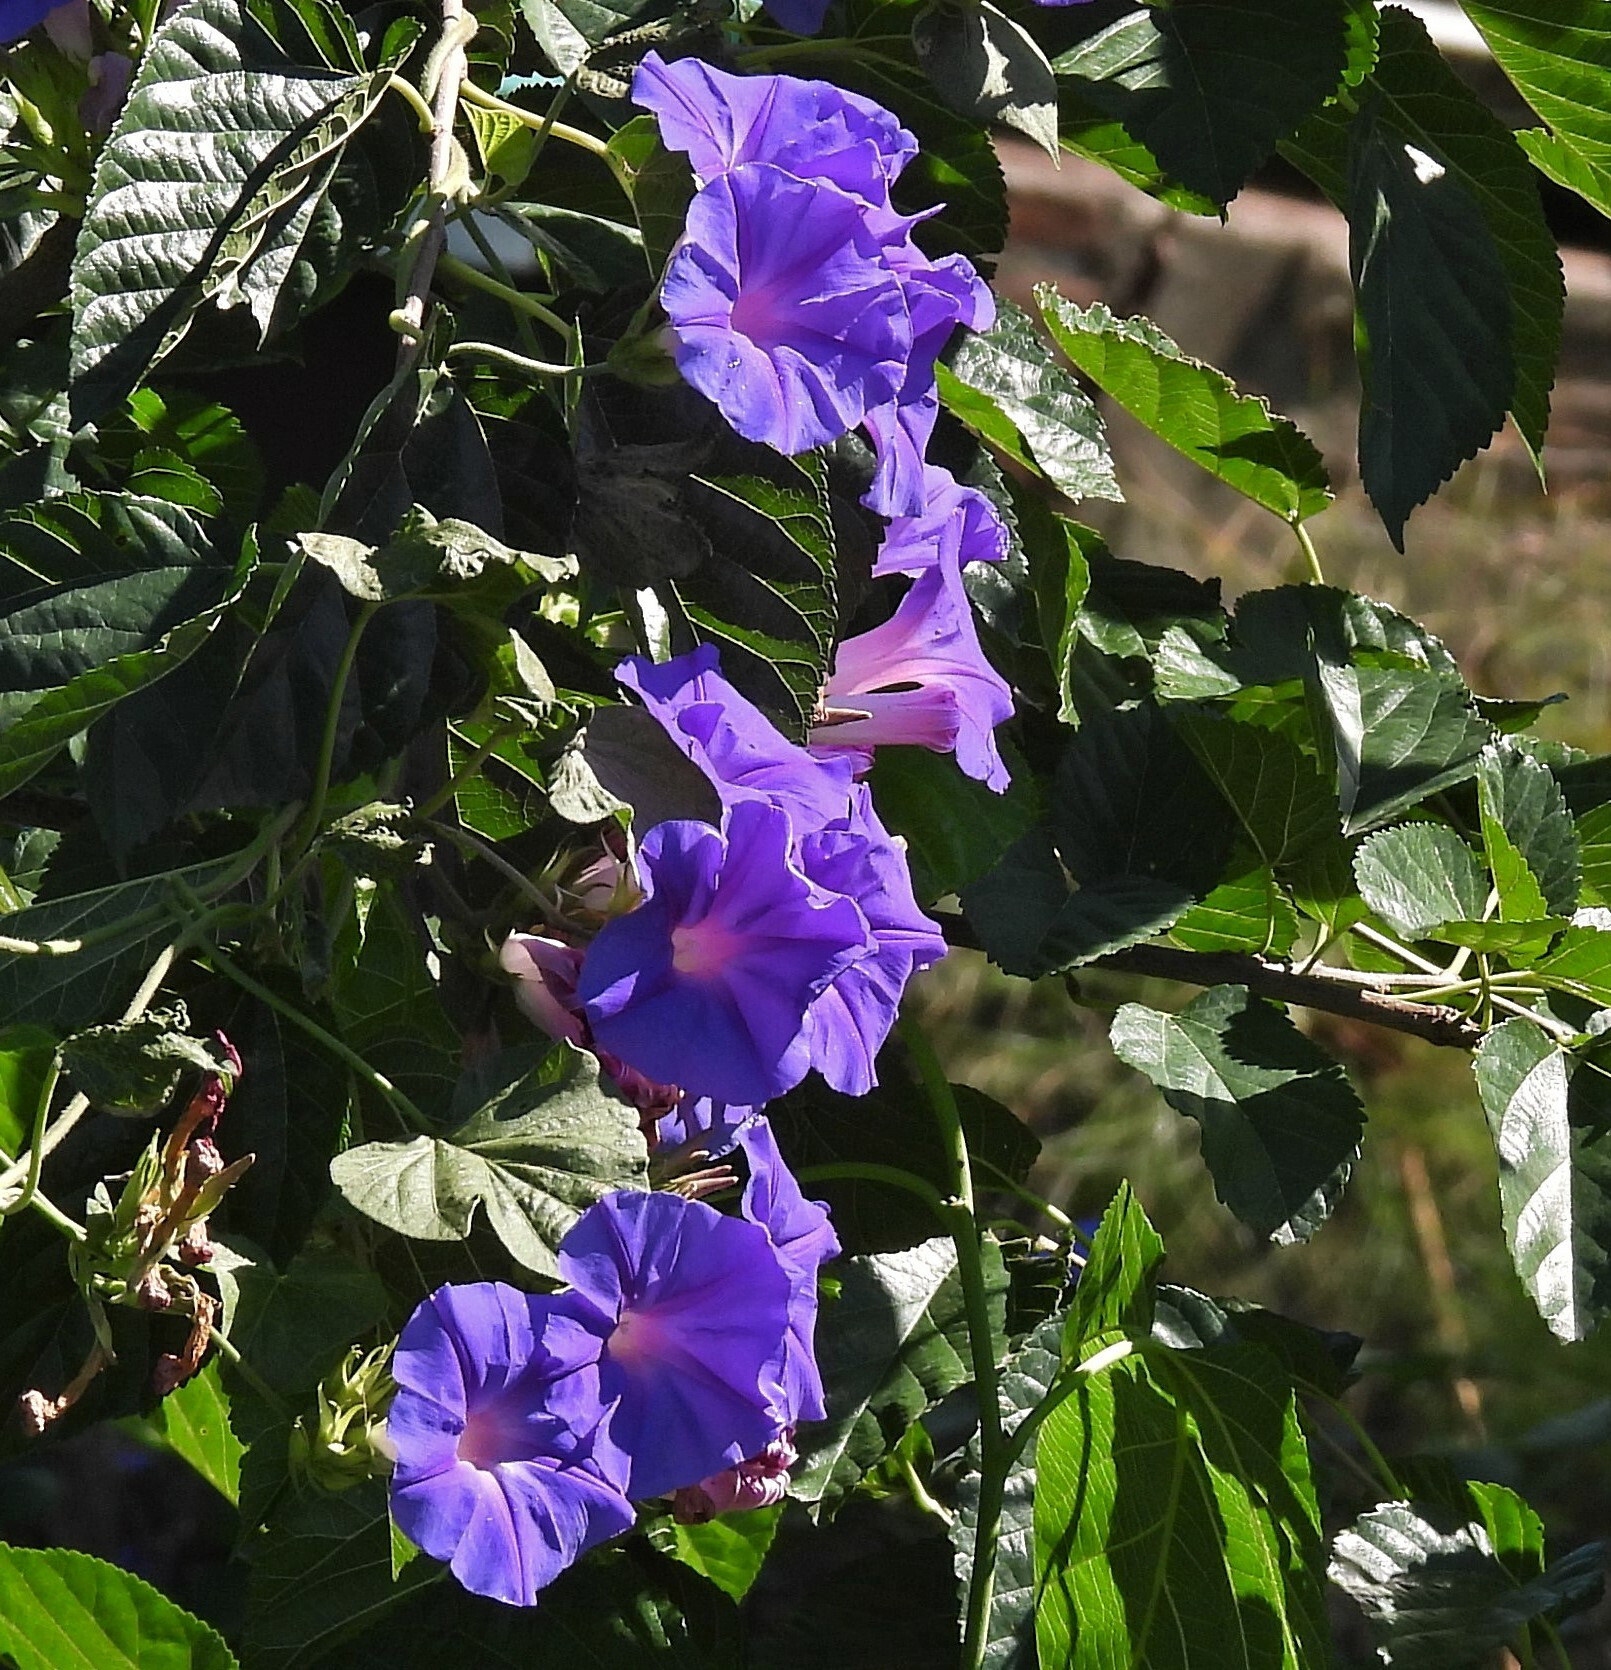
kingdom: Plantae
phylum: Tracheophyta
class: Magnoliopsida
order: Solanales
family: Convolvulaceae
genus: Ipomoea
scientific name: Ipomoea indica
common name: Blue dawnflower
